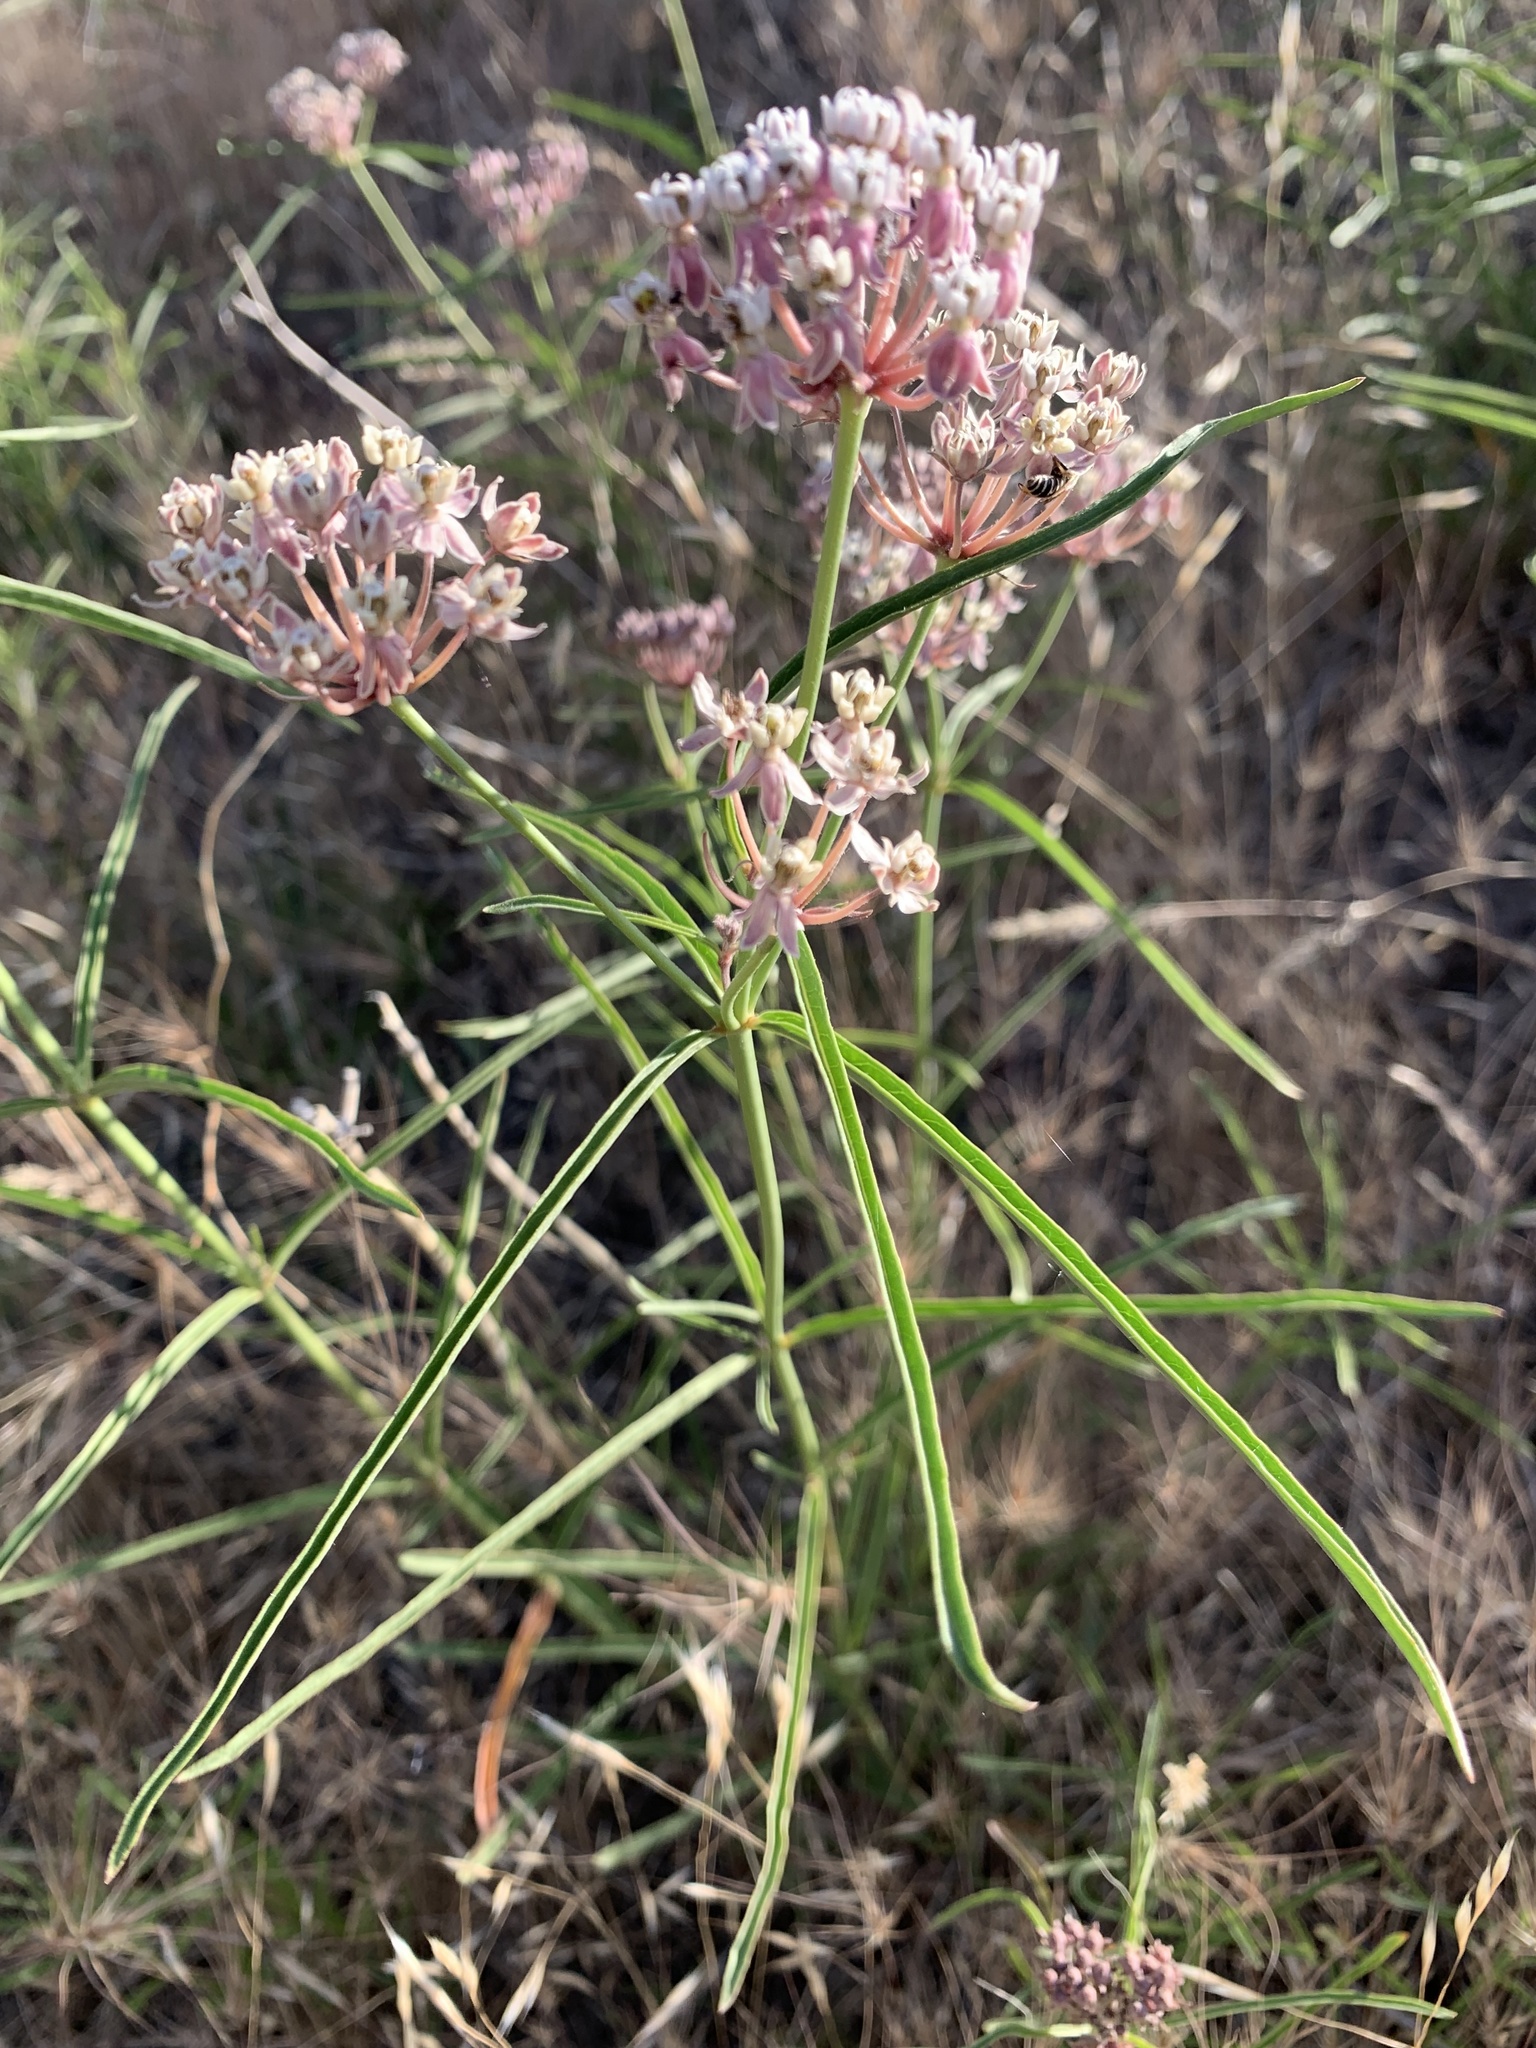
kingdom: Plantae
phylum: Tracheophyta
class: Magnoliopsida
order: Gentianales
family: Apocynaceae
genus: Asclepias
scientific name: Asclepias fascicularis
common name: Mexican milkweed
